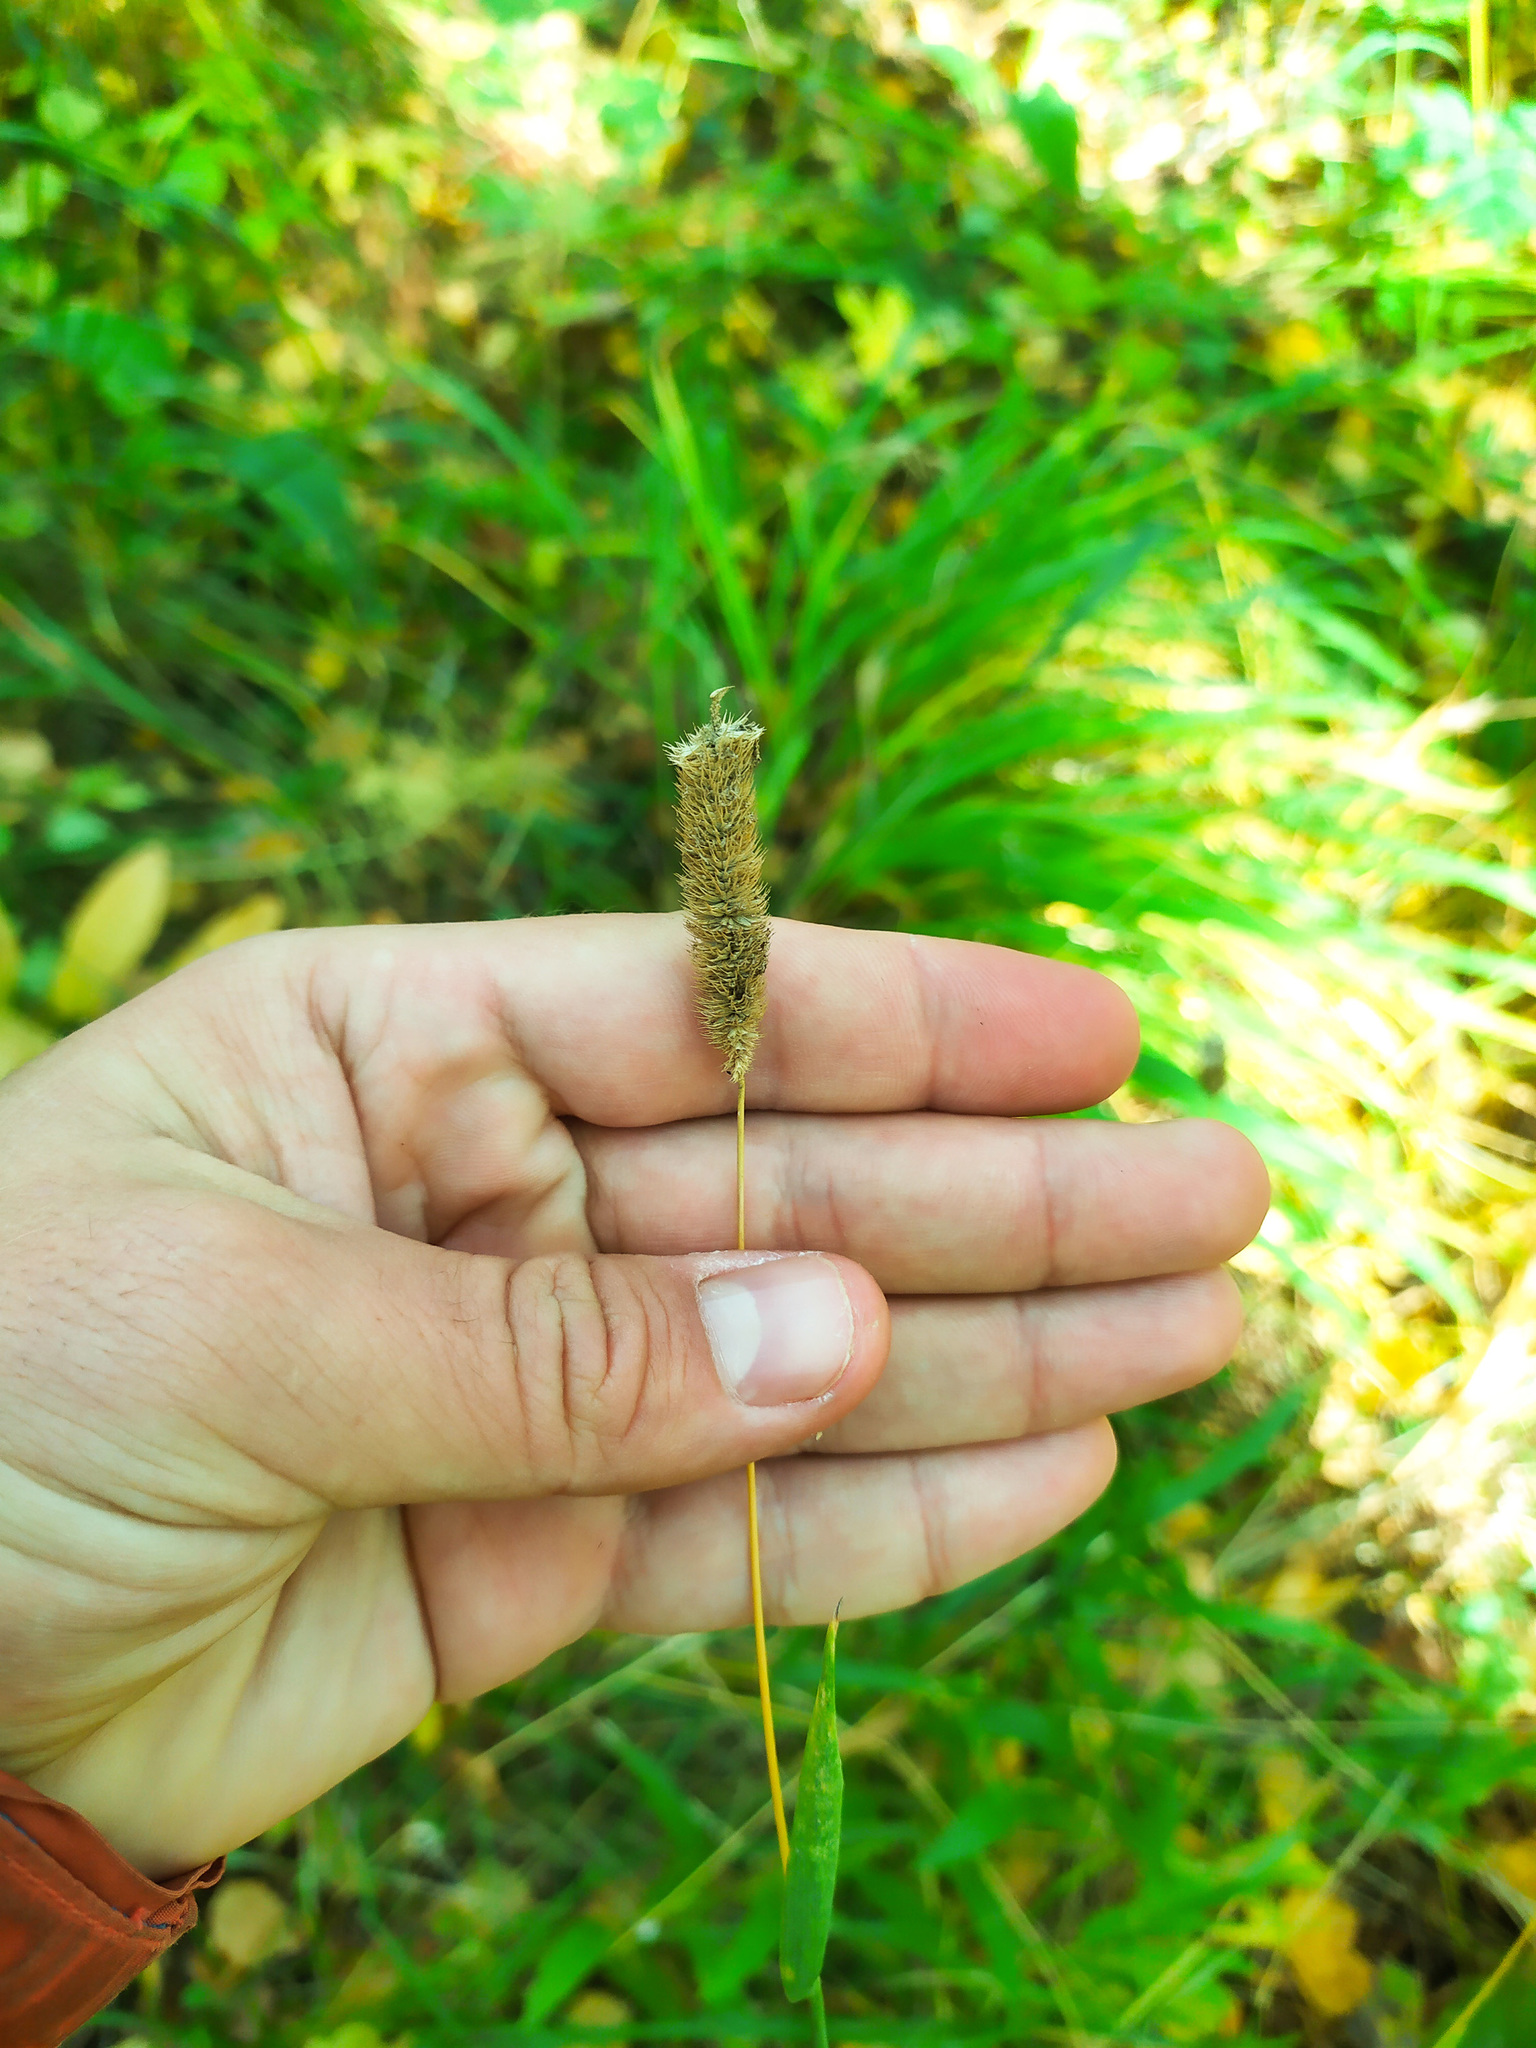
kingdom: Plantae
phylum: Tracheophyta
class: Liliopsida
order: Poales
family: Poaceae
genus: Phleum
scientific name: Phleum pratense
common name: Timothy grass
